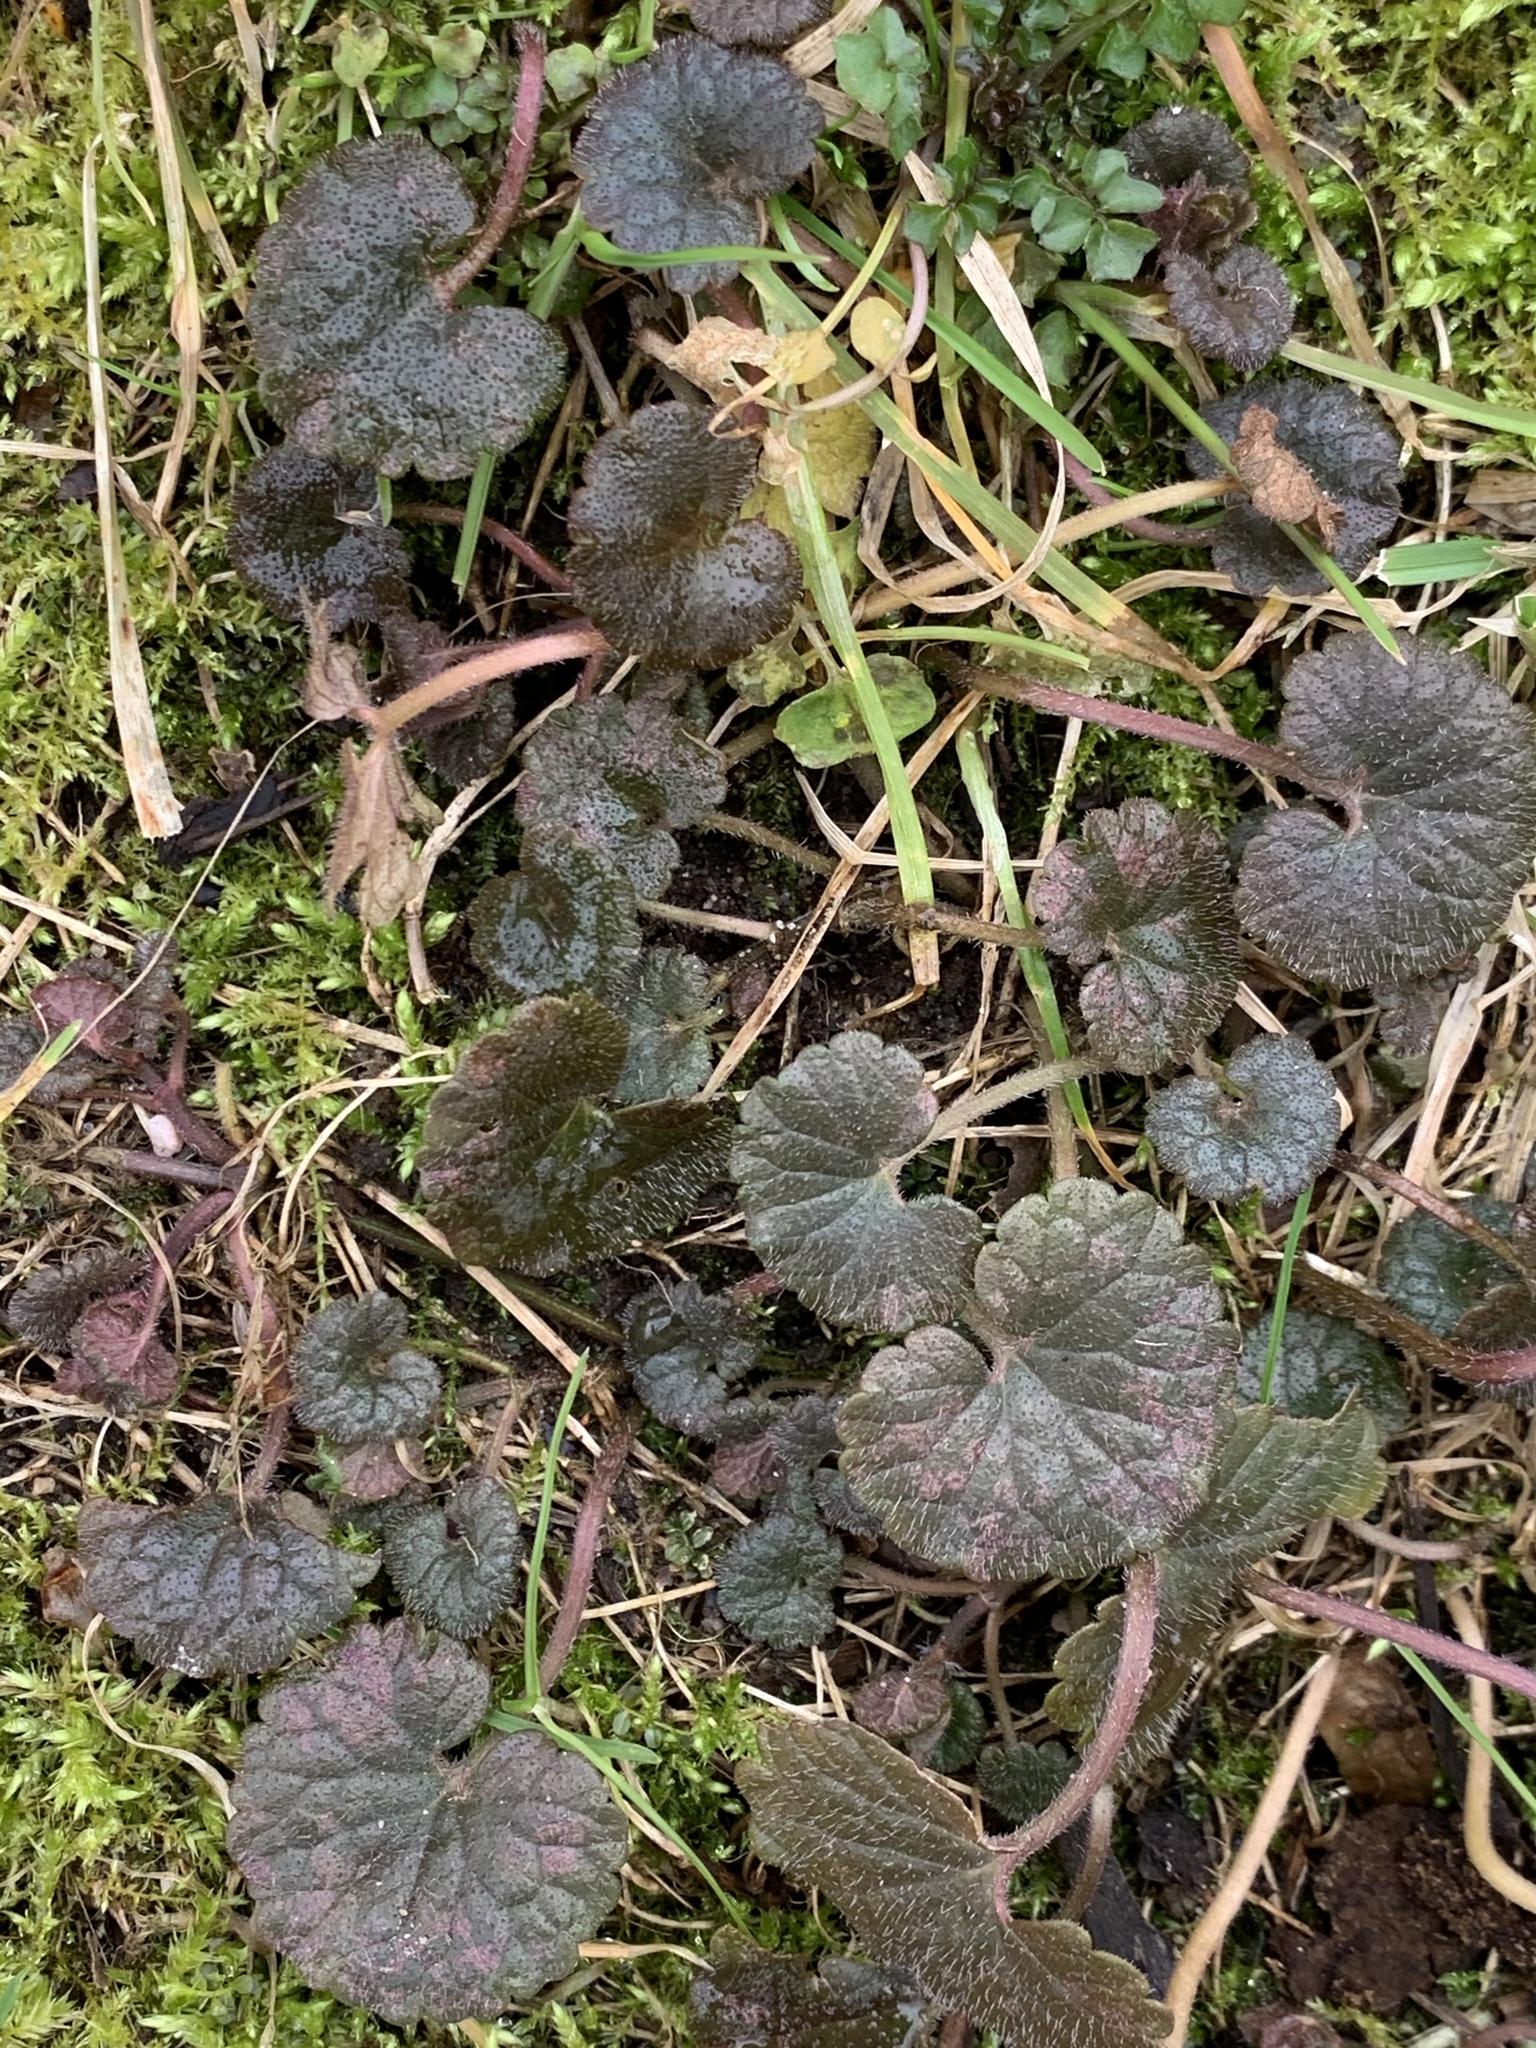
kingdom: Plantae
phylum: Tracheophyta
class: Magnoliopsida
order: Lamiales
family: Lamiaceae
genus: Glechoma
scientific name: Glechoma hederacea
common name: Ground ivy
